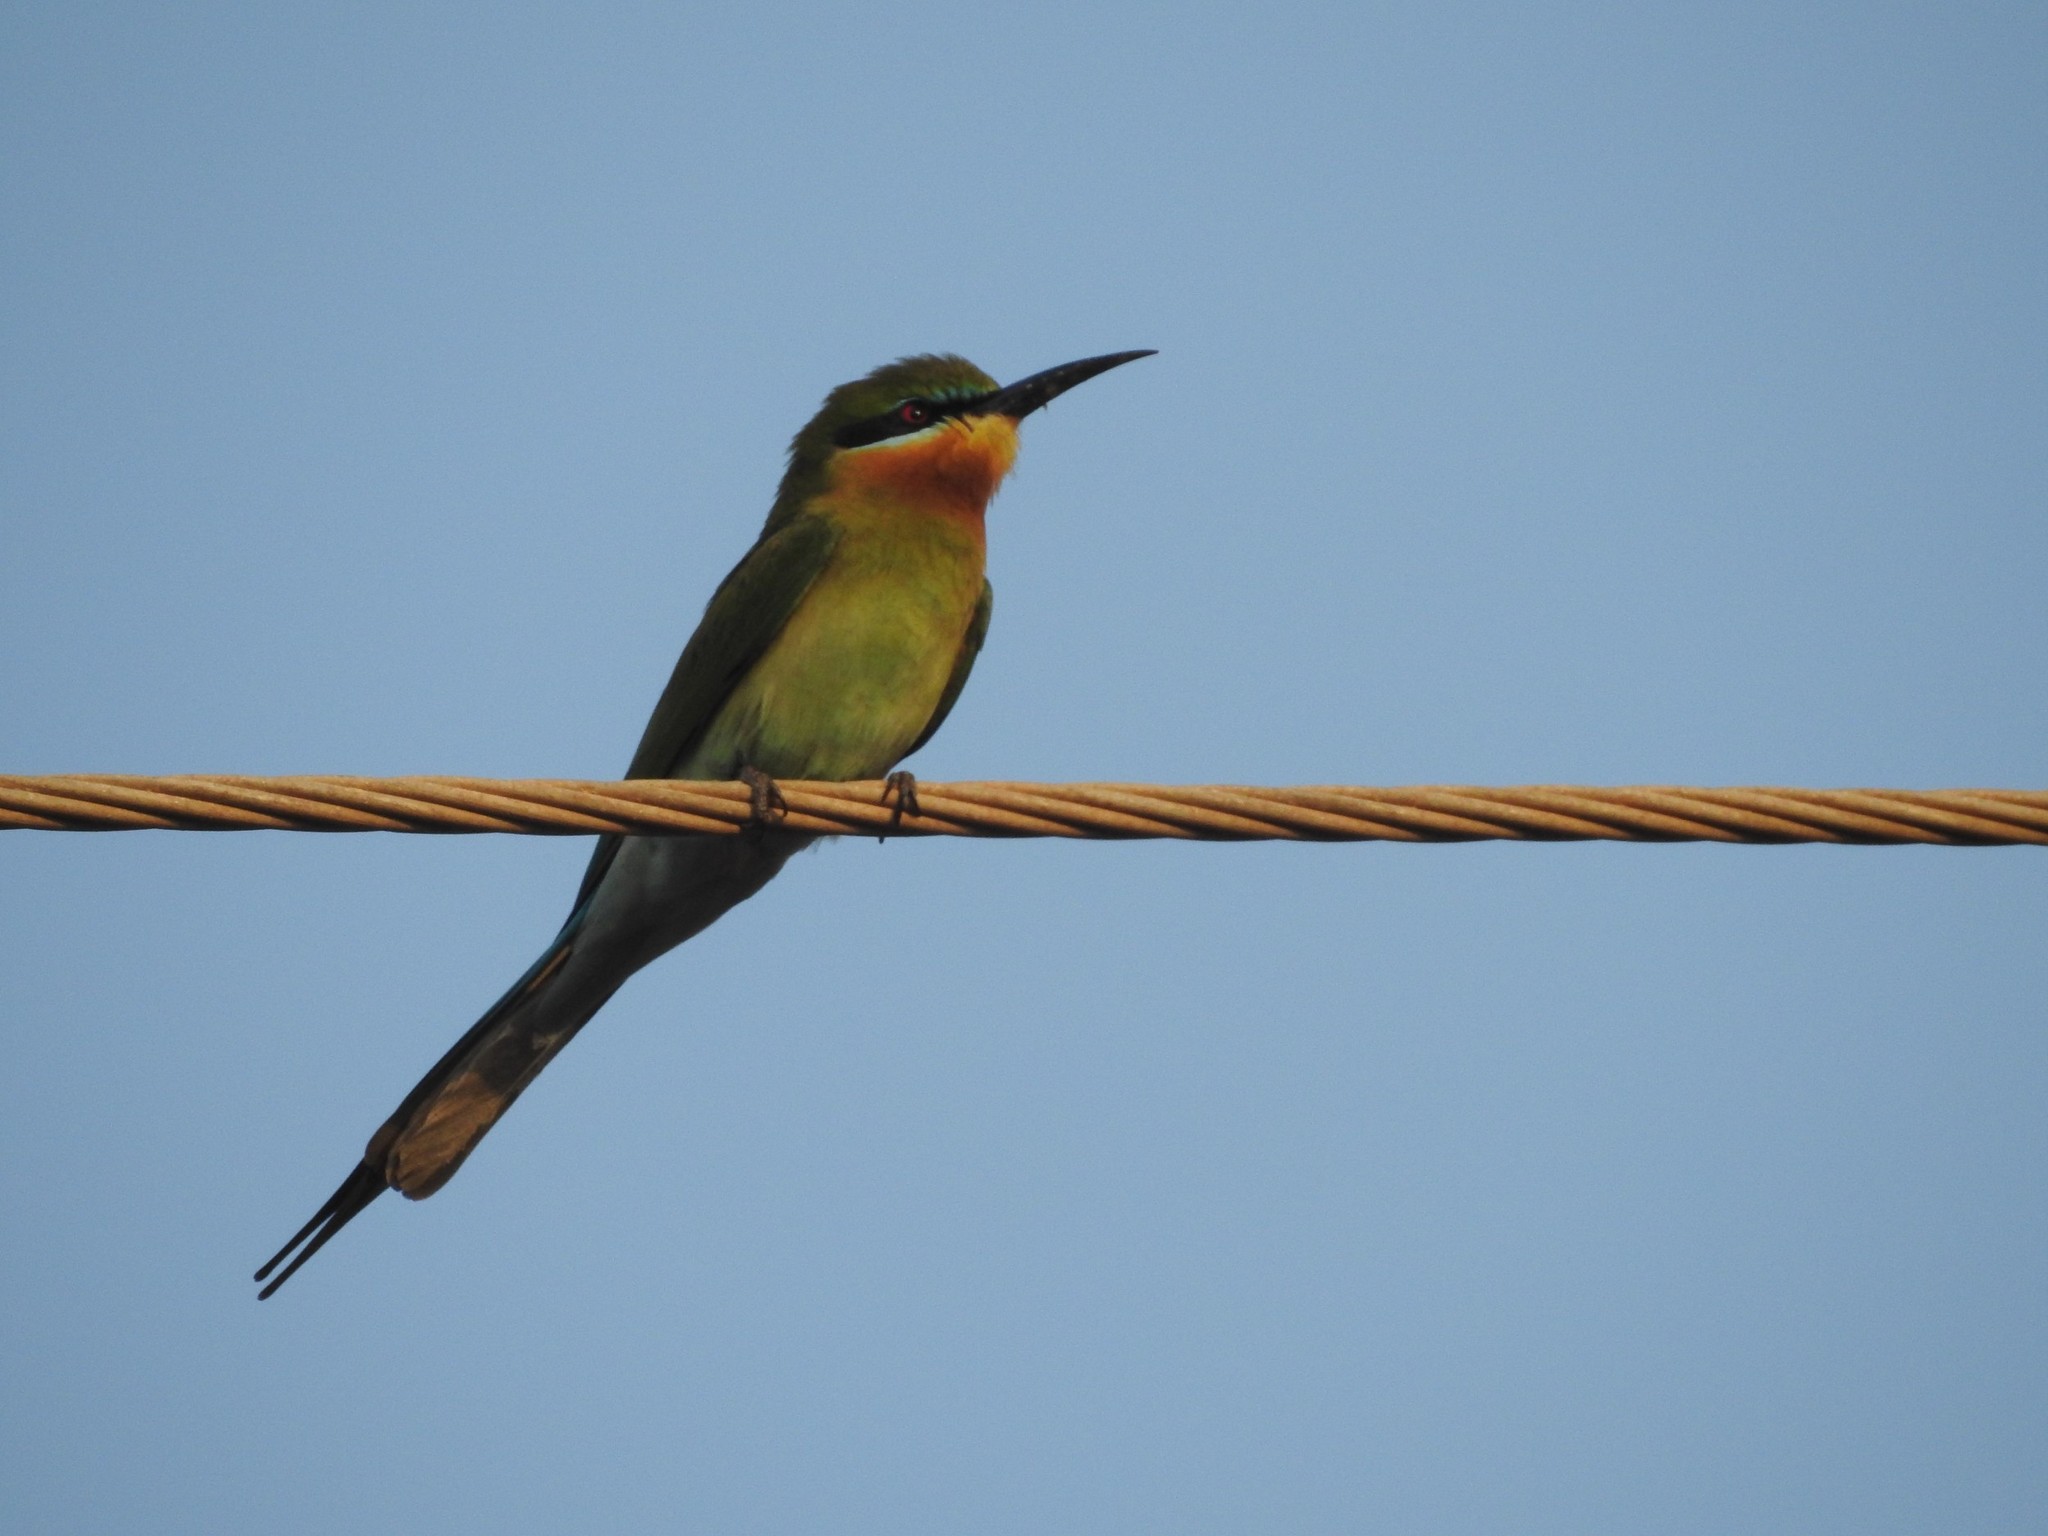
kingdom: Animalia
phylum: Chordata
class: Aves
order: Coraciiformes
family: Meropidae
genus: Merops
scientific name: Merops philippinus
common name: Blue-tailed bee-eater
